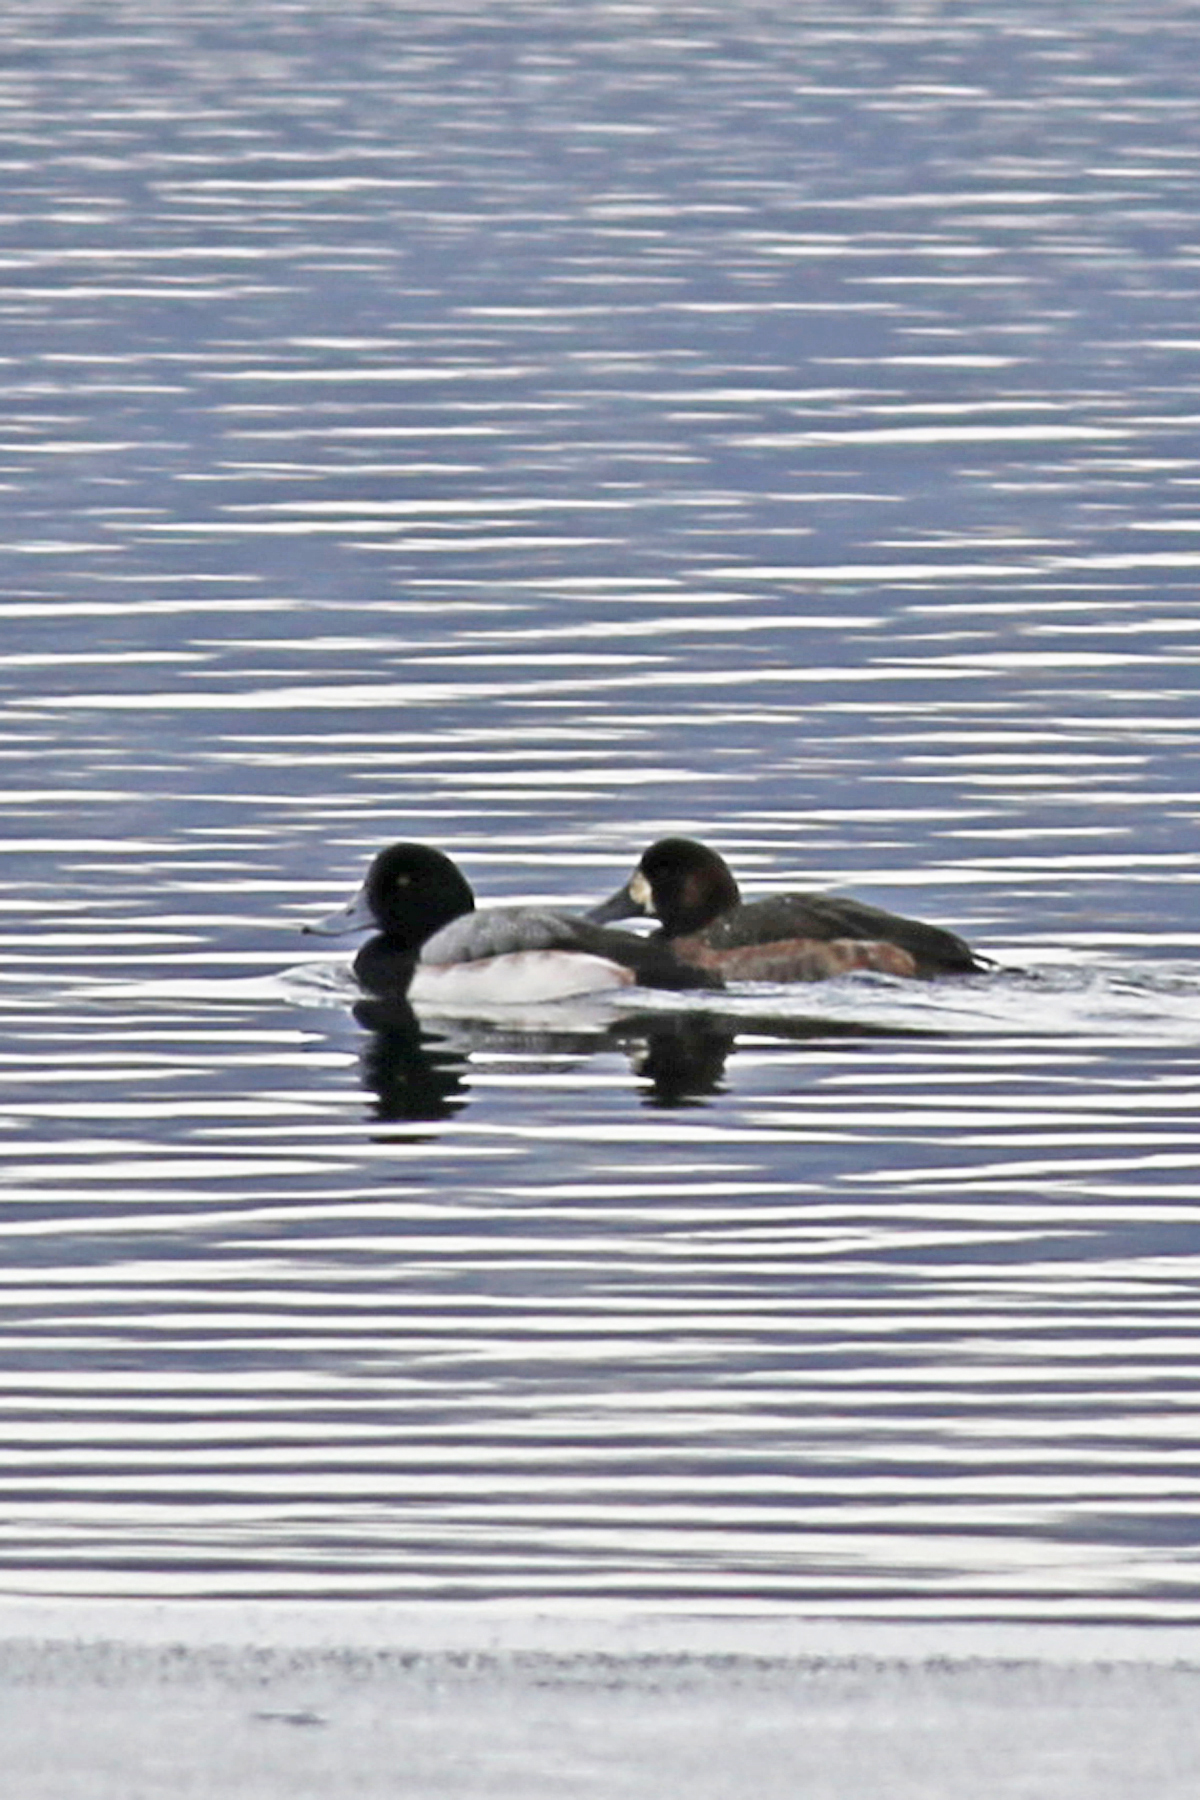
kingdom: Animalia
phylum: Chordata
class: Aves
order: Anseriformes
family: Anatidae
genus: Aythya
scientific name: Aythya marila
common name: Greater scaup
